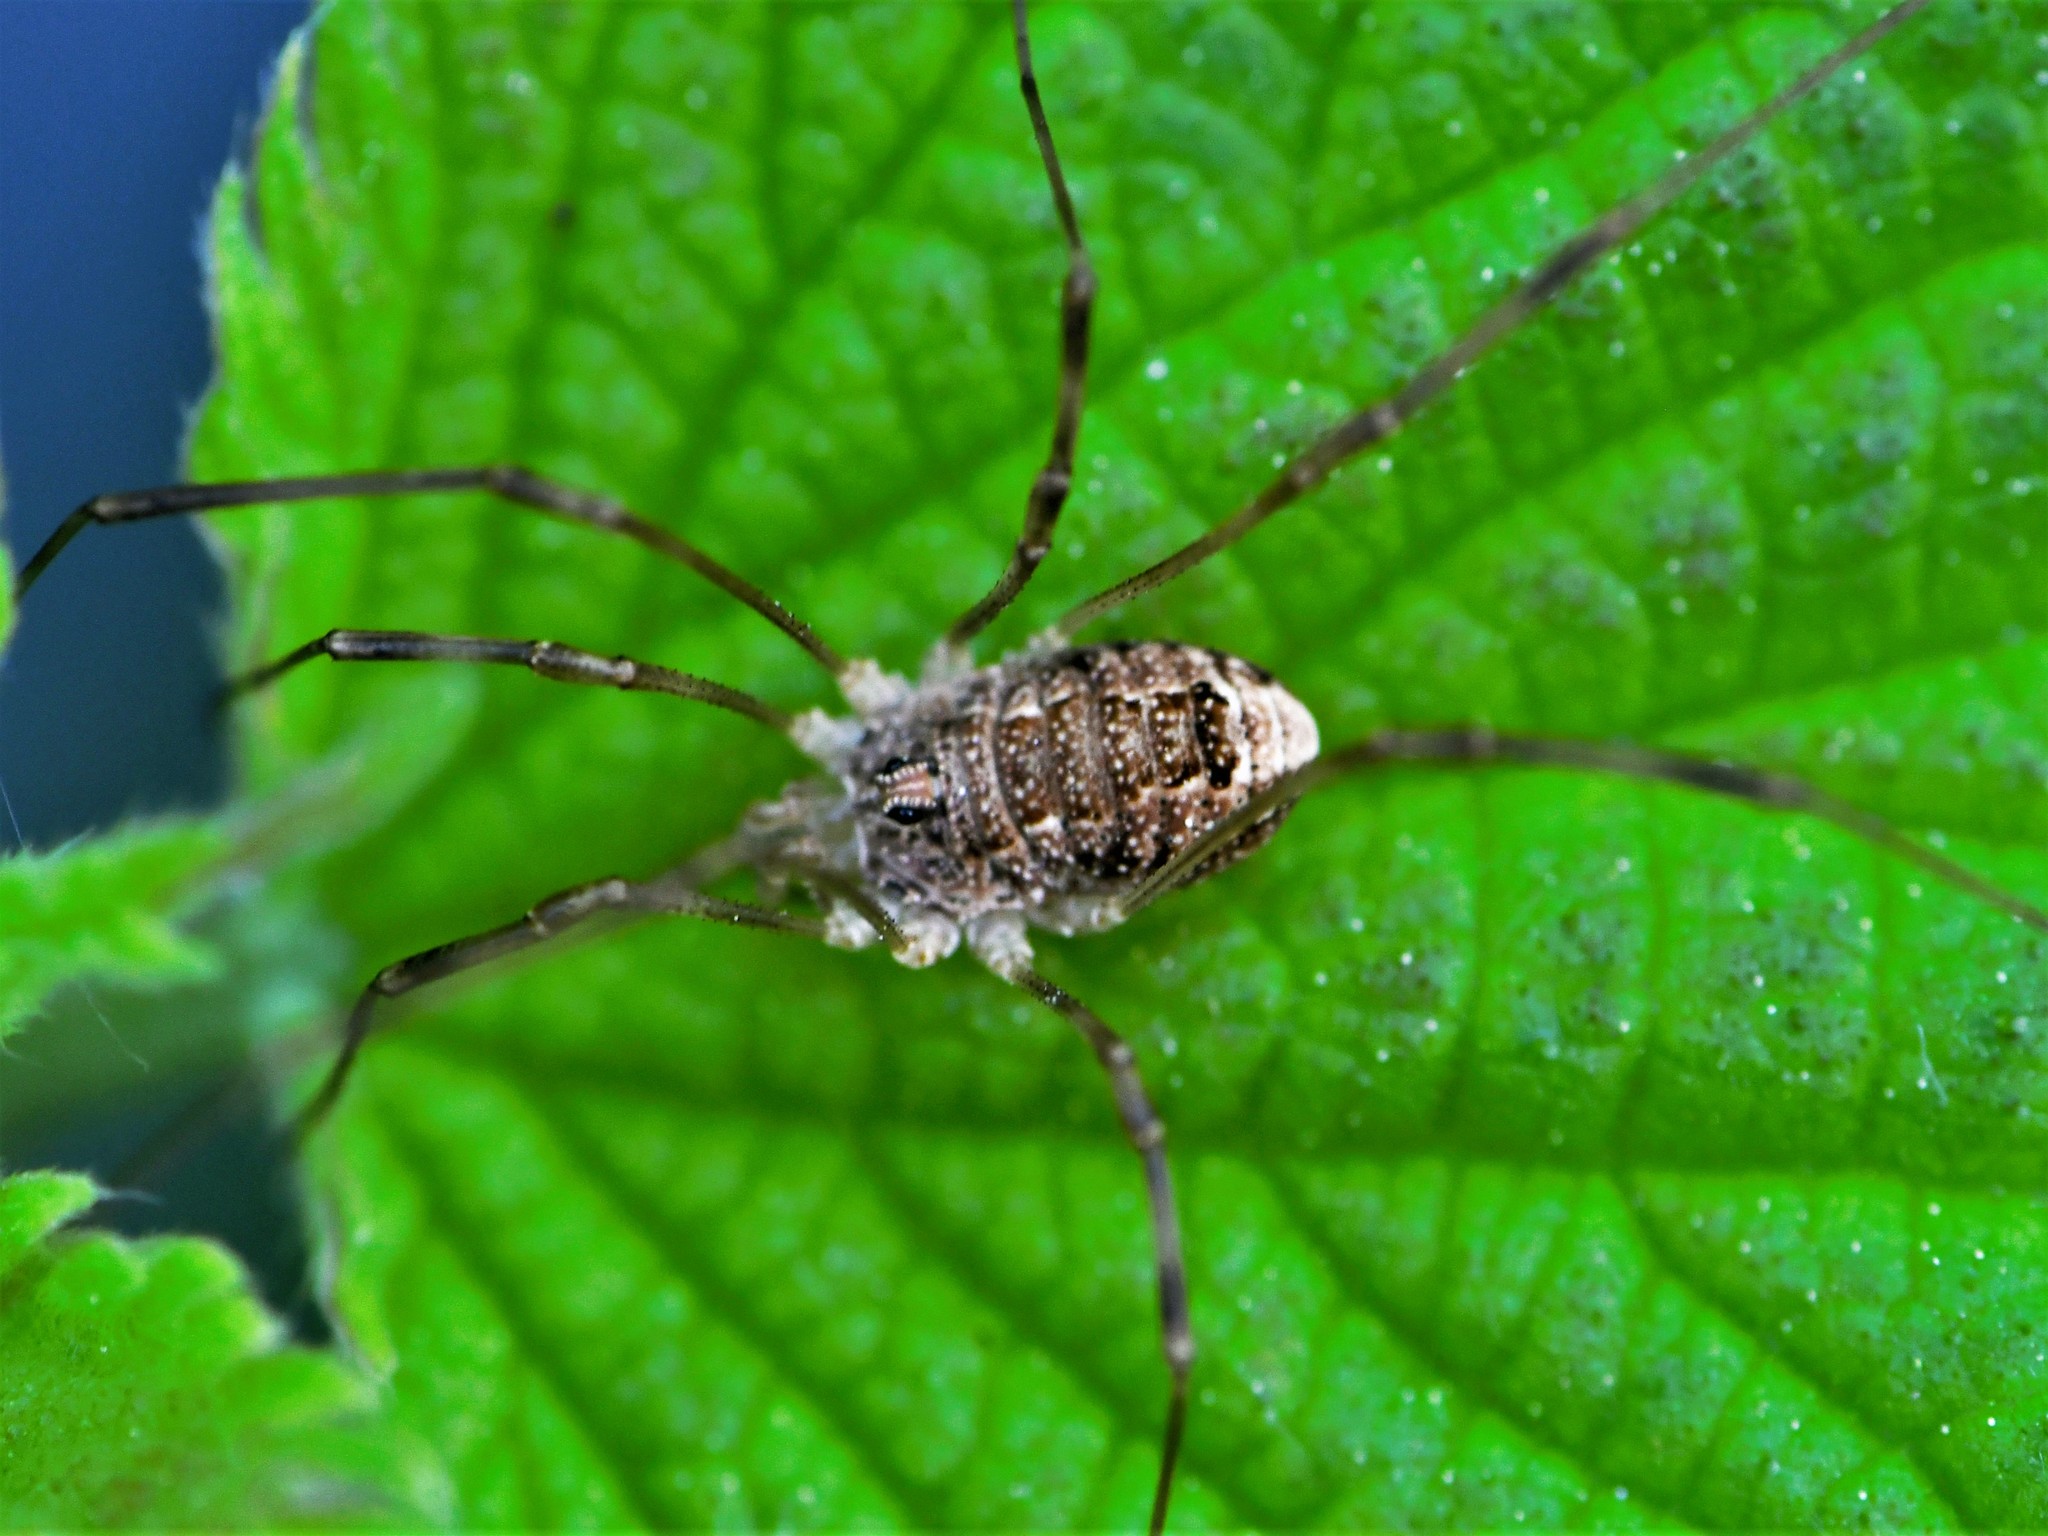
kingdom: Animalia
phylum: Arthropoda
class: Arachnida
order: Opiliones
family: Phalangiidae
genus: Rilaena
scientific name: Rilaena triangularis
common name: Spring harvestman
